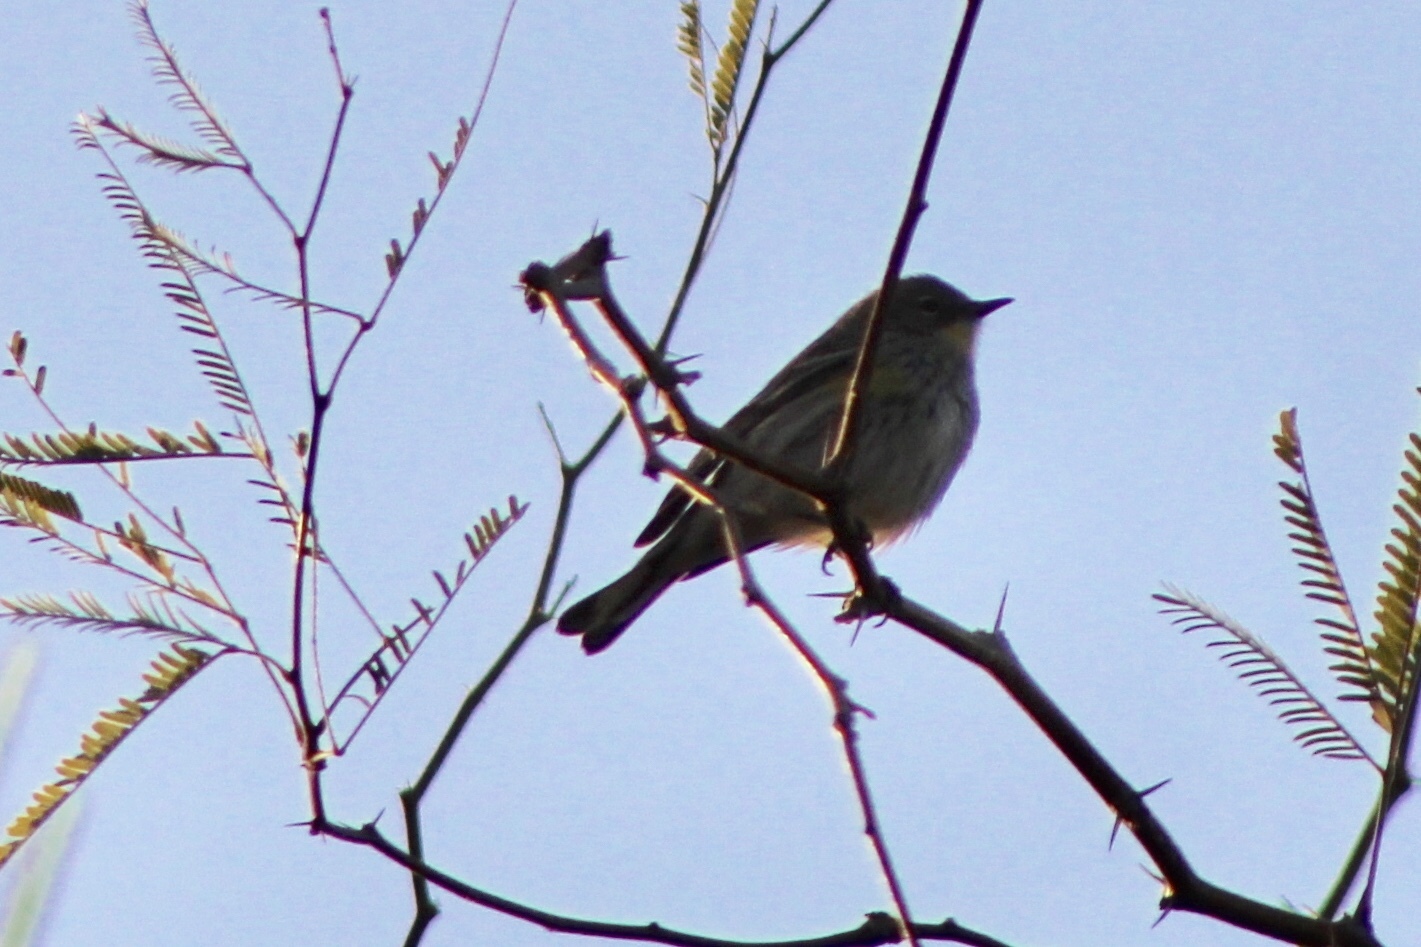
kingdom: Animalia
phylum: Chordata
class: Aves
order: Passeriformes
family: Parulidae
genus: Setophaga
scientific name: Setophaga auduboni
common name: Audubon's warbler
